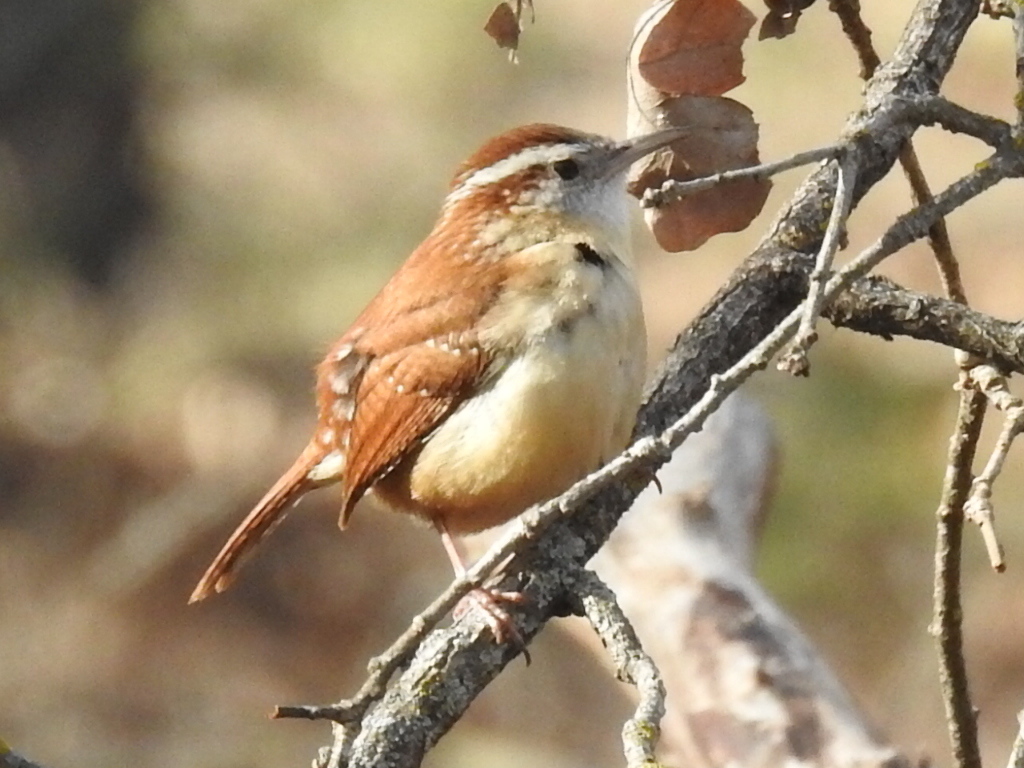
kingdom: Animalia
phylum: Chordata
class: Aves
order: Passeriformes
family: Troglodytidae
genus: Thryothorus
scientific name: Thryothorus ludovicianus
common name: Carolina wren
